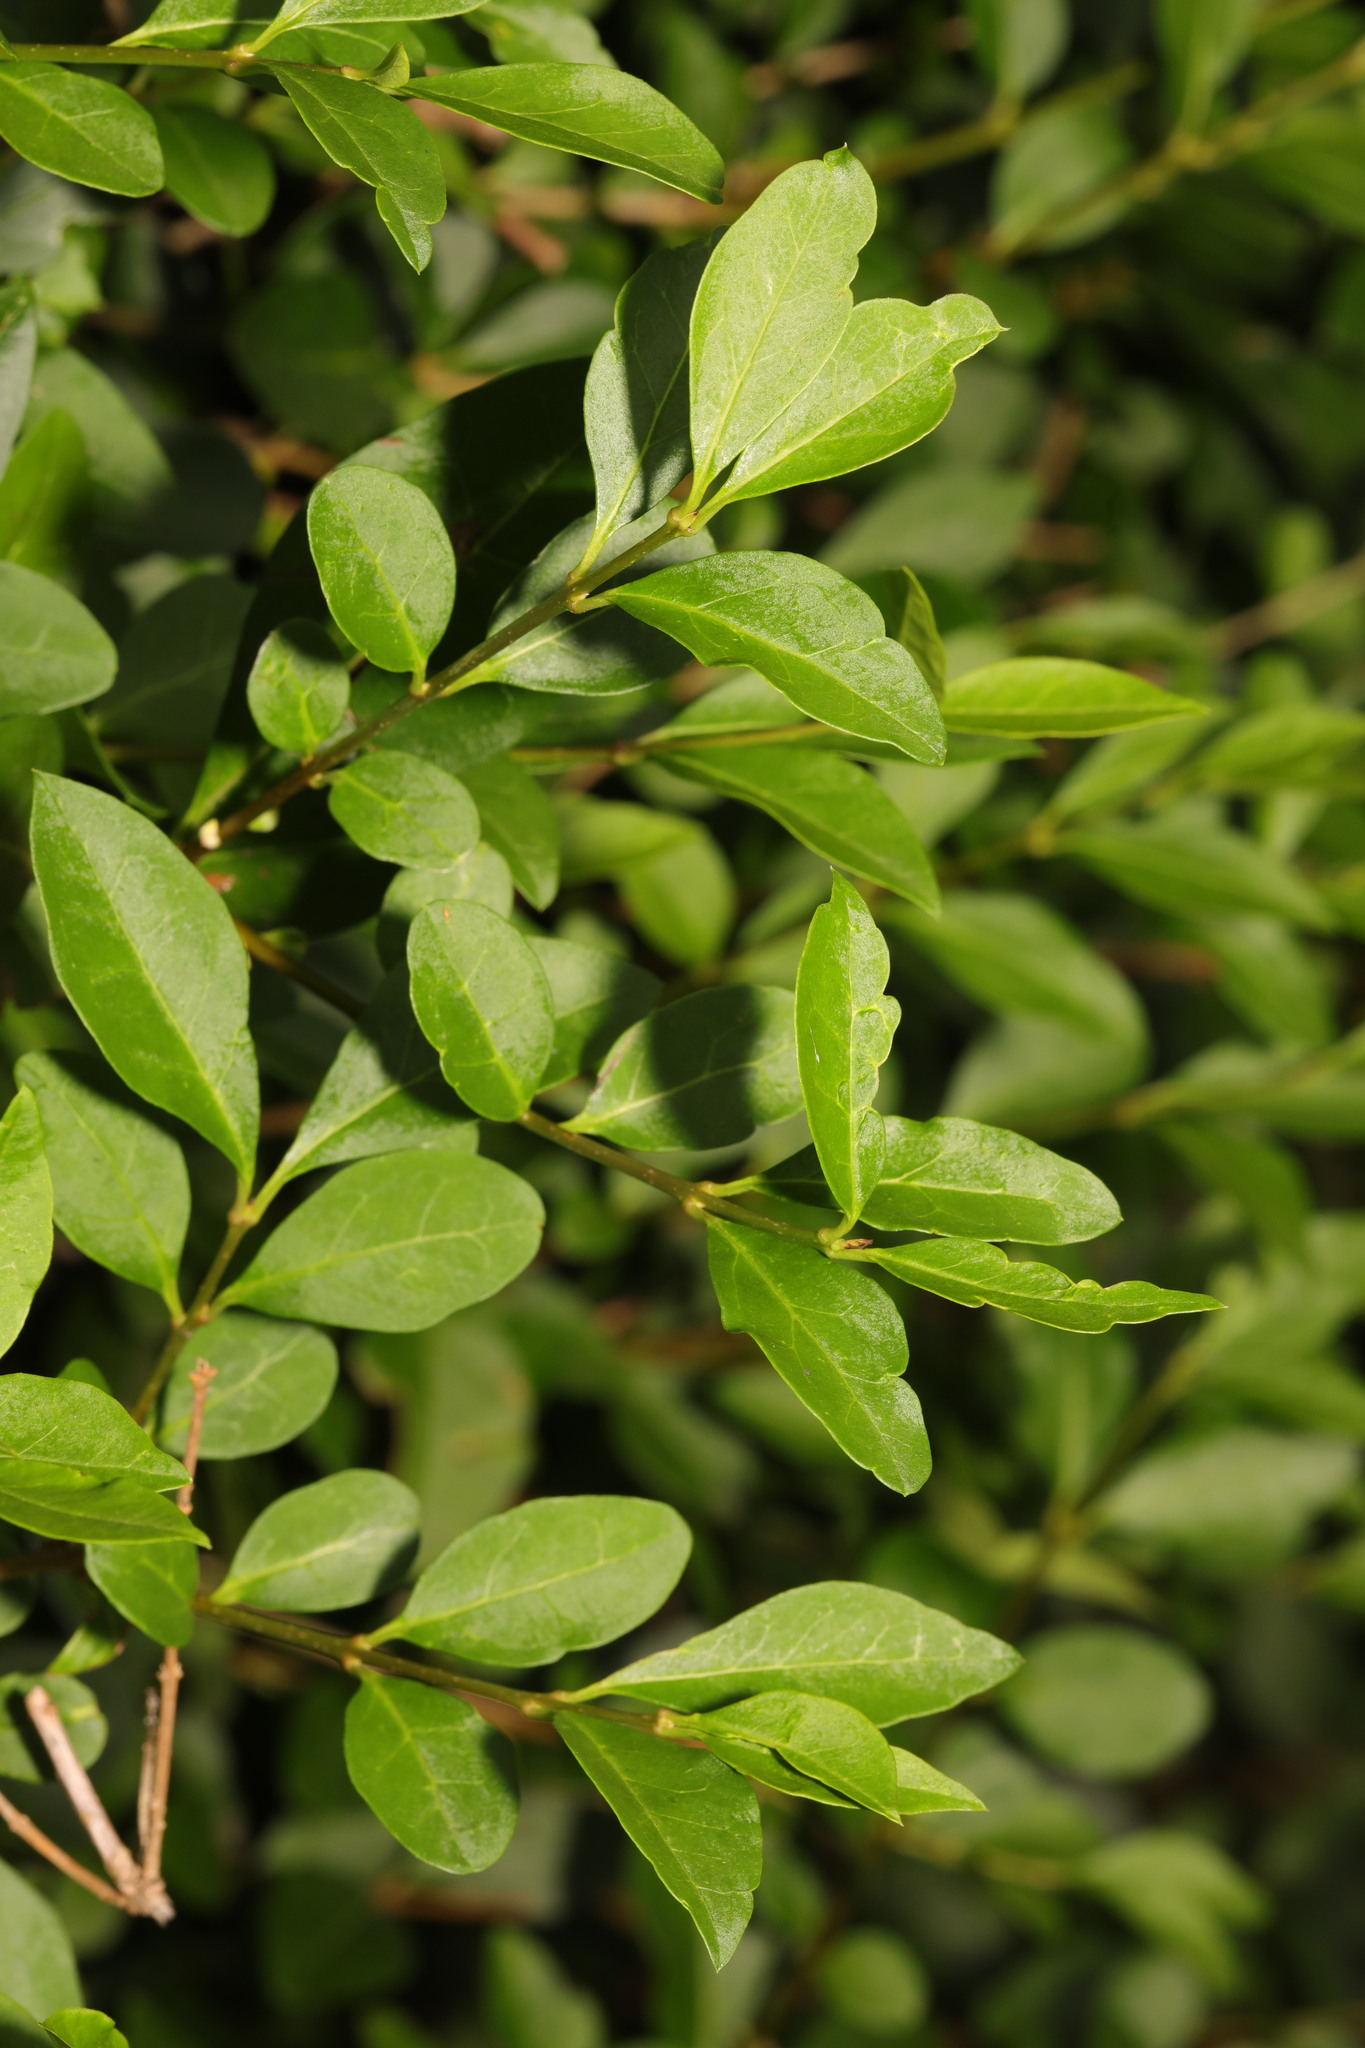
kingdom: Plantae
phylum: Tracheophyta
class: Magnoliopsida
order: Lamiales
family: Oleaceae
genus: Ligustrum
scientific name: Ligustrum ovalifolium
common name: California privet
